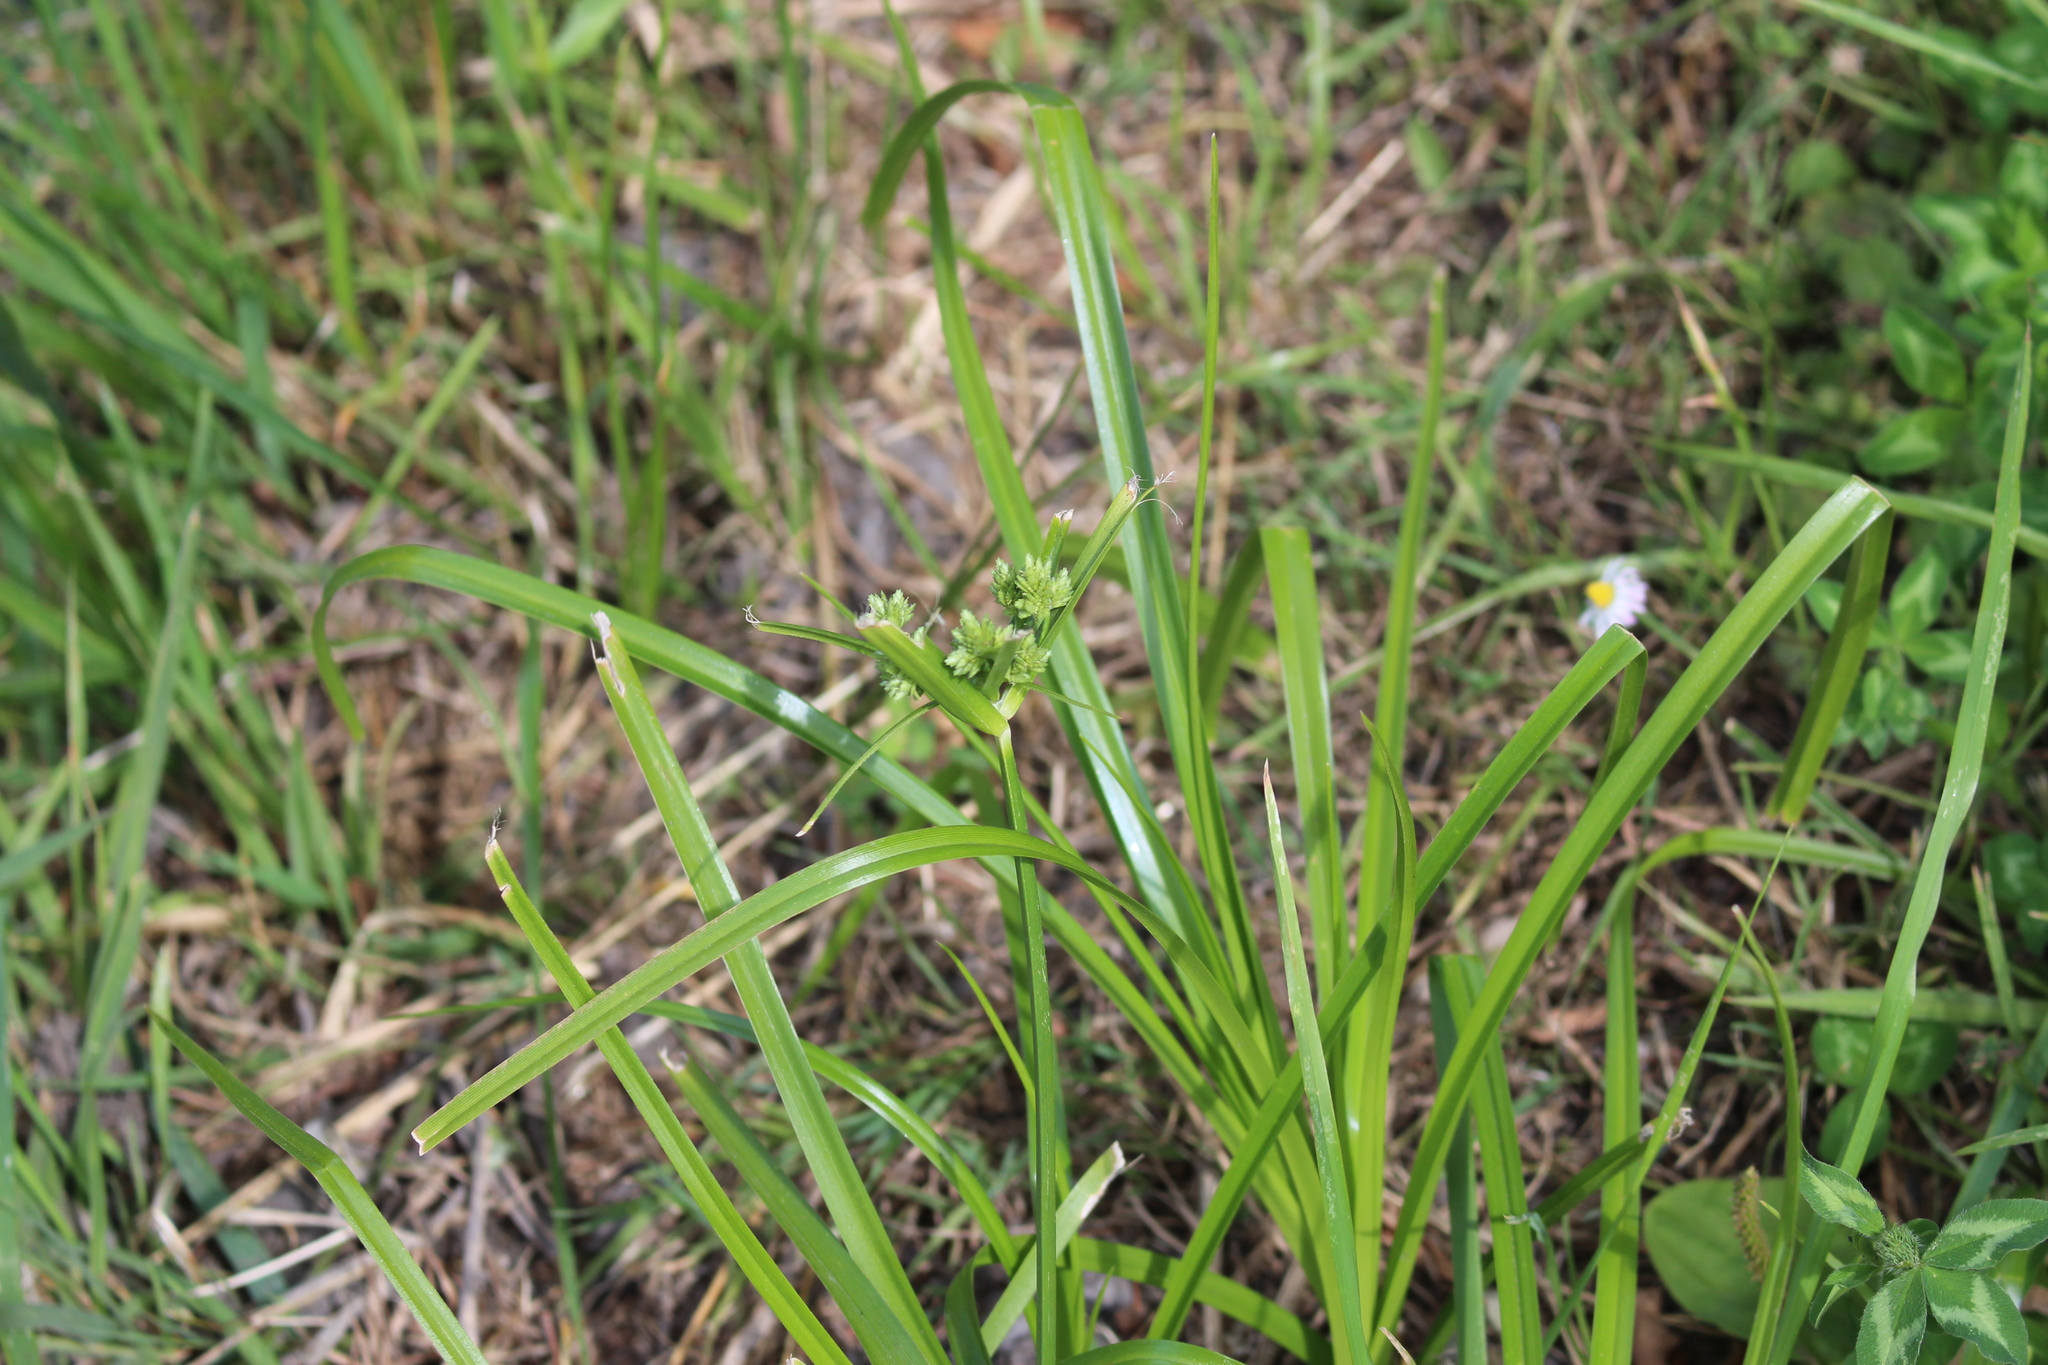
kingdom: Plantae
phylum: Tracheophyta
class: Liliopsida
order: Poales
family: Cyperaceae
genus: Cyperus
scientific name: Cyperus eragrostis
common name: Tall flatsedge
